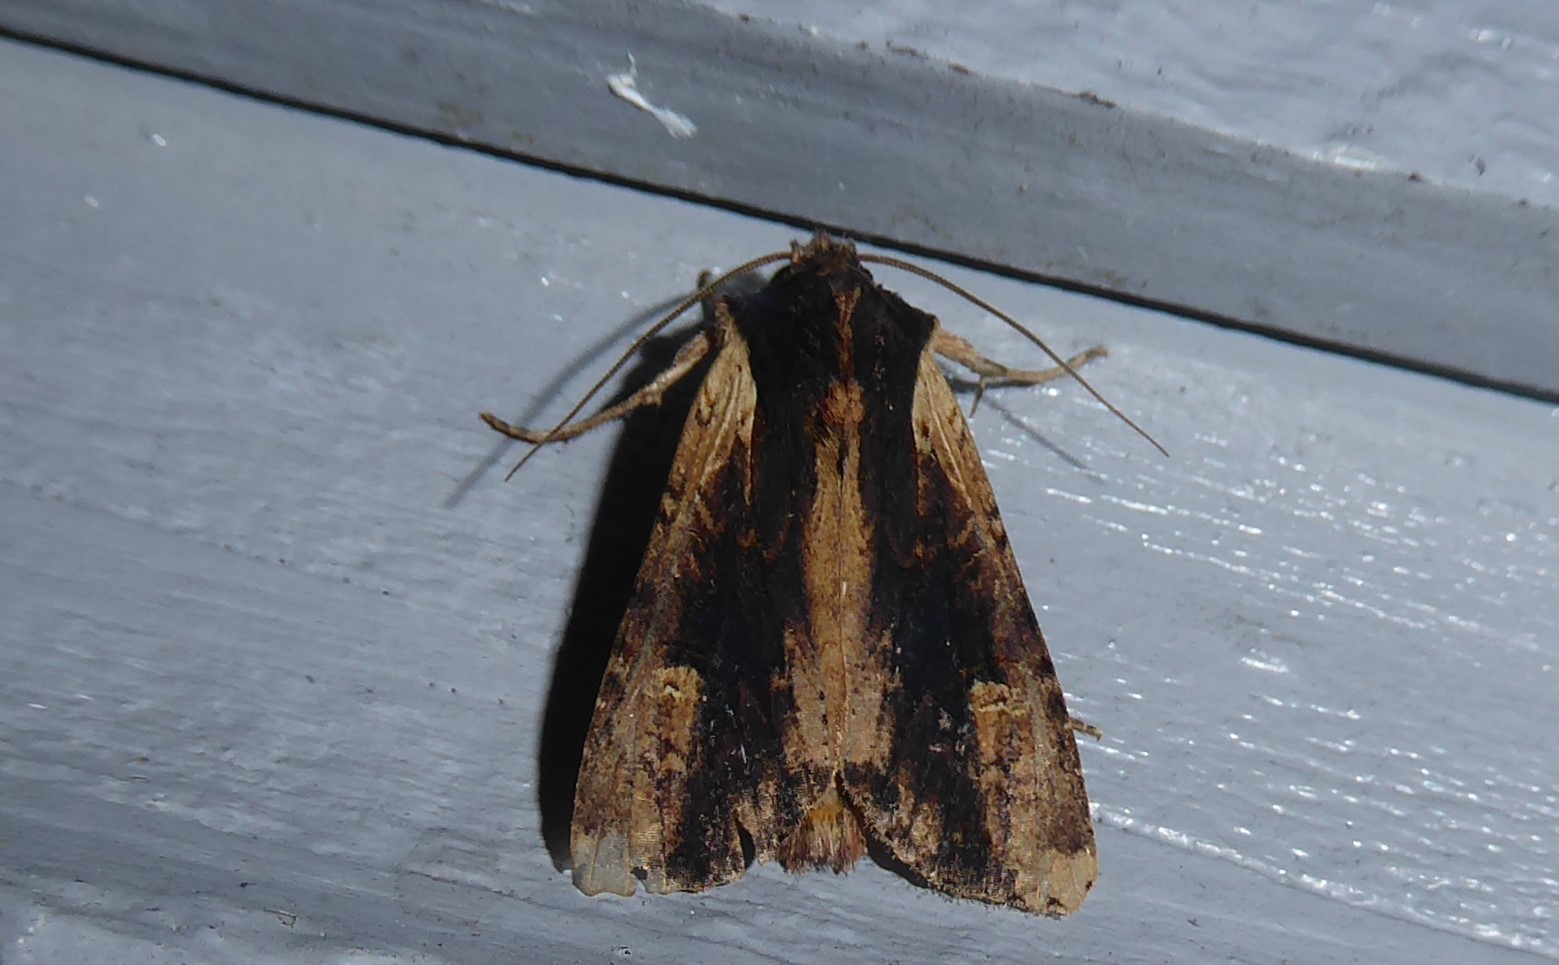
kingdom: Animalia
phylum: Arthropoda
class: Insecta
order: Lepidoptera
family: Noctuidae
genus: Ichneutica
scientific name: Ichneutica omoplaca
